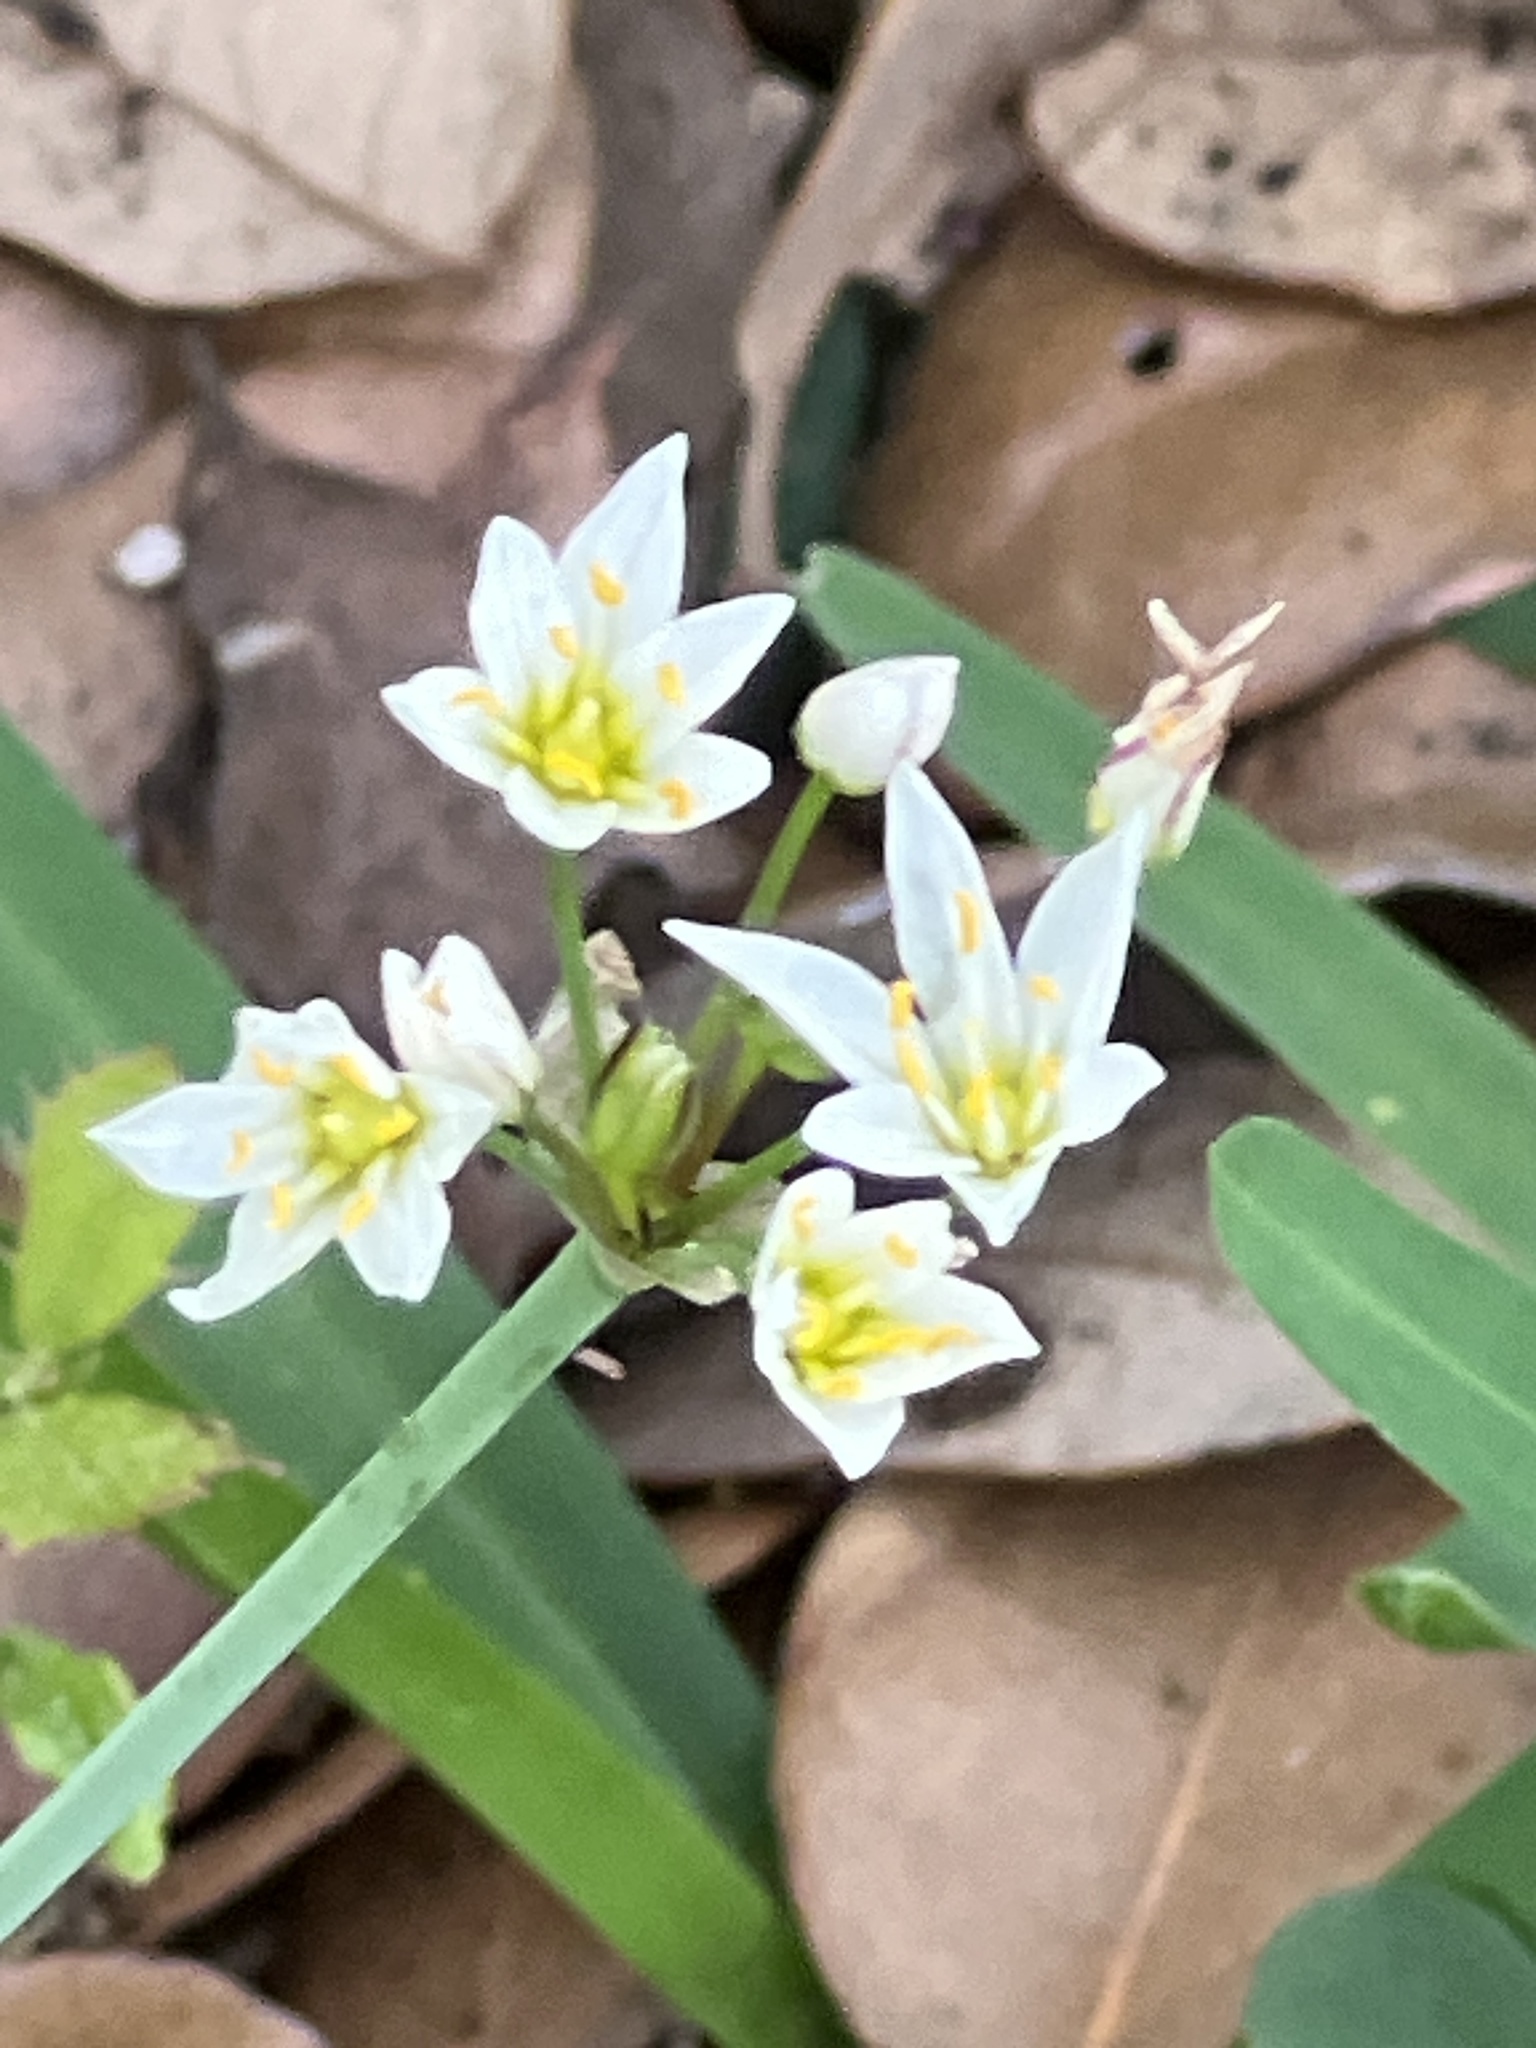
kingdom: Plantae
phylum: Tracheophyta
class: Liliopsida
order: Asparagales
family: Amaryllidaceae
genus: Nothoscordum
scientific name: Nothoscordum bivalve
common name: Crow-poison
